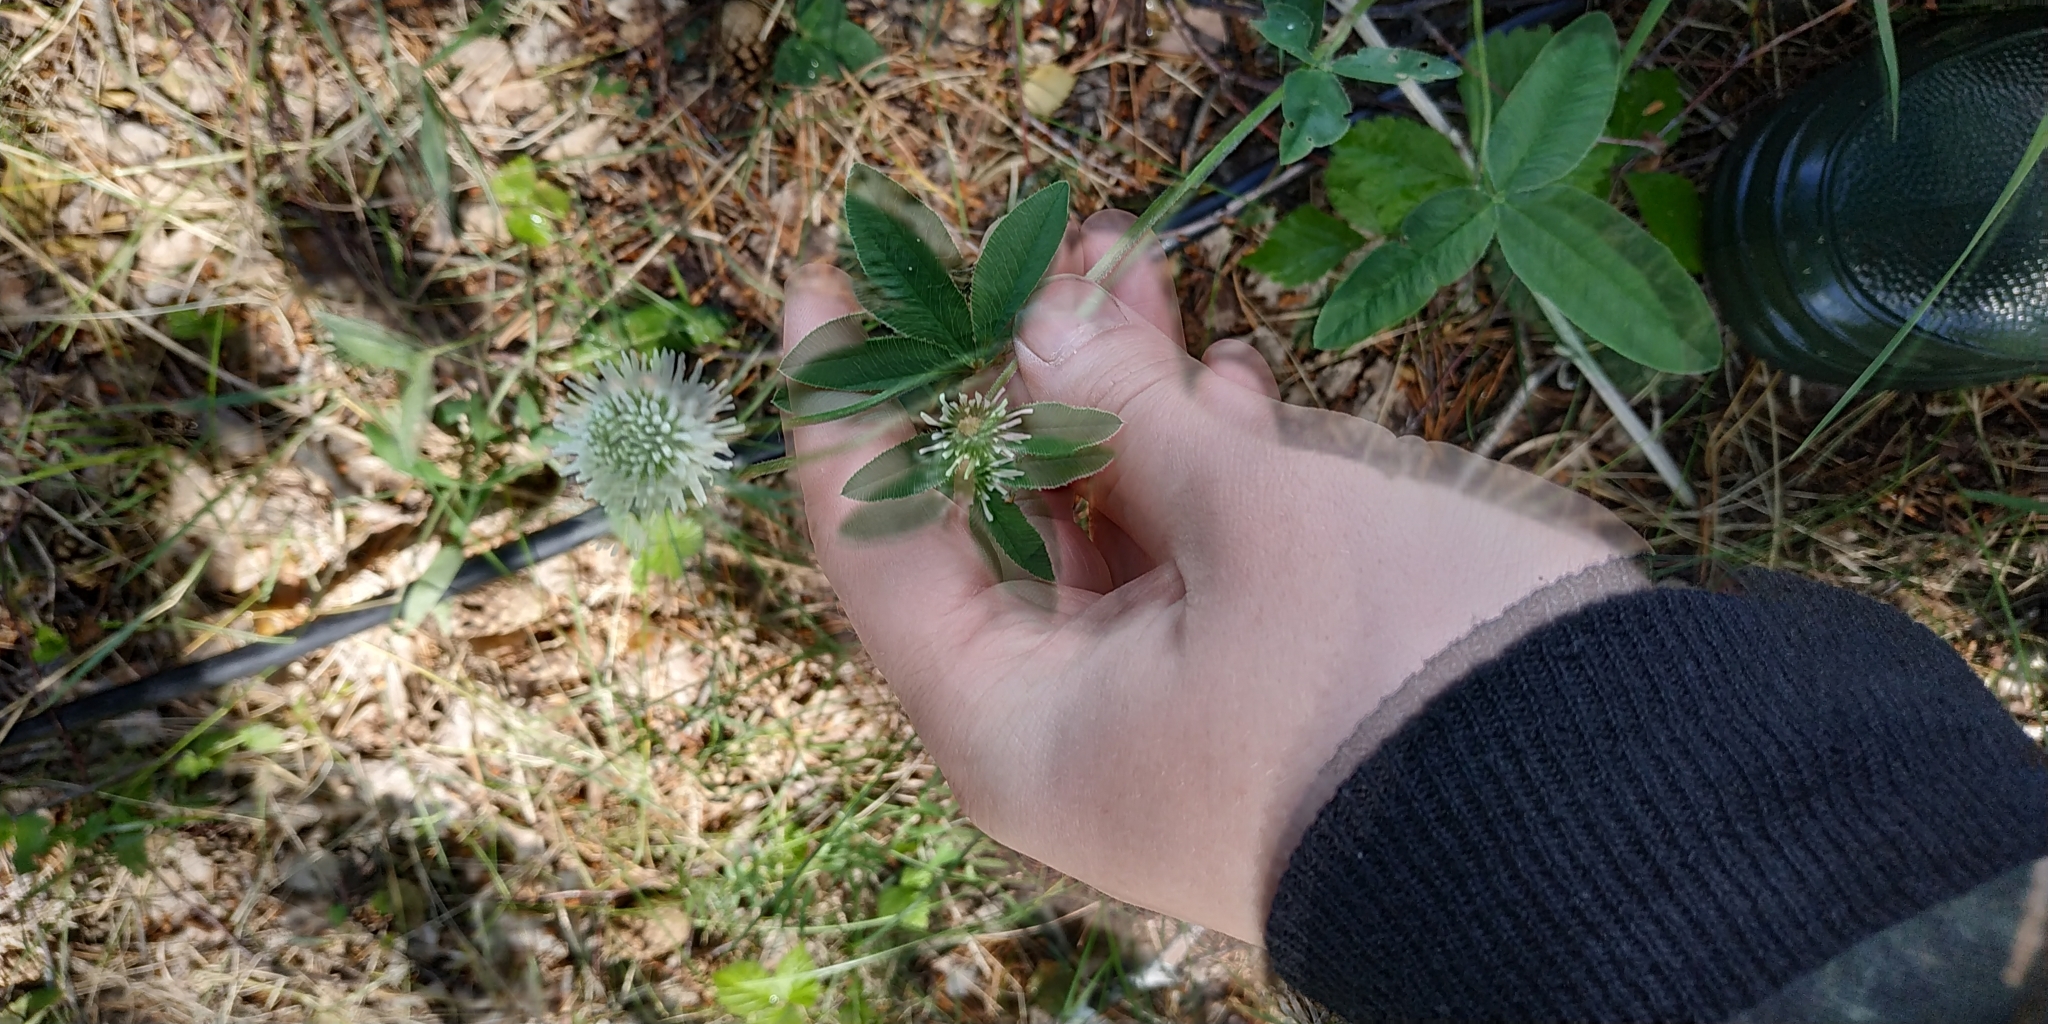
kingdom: Plantae
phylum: Tracheophyta
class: Magnoliopsida
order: Fabales
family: Fabaceae
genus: Trifolium
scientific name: Trifolium montanum
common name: Mountain clover
